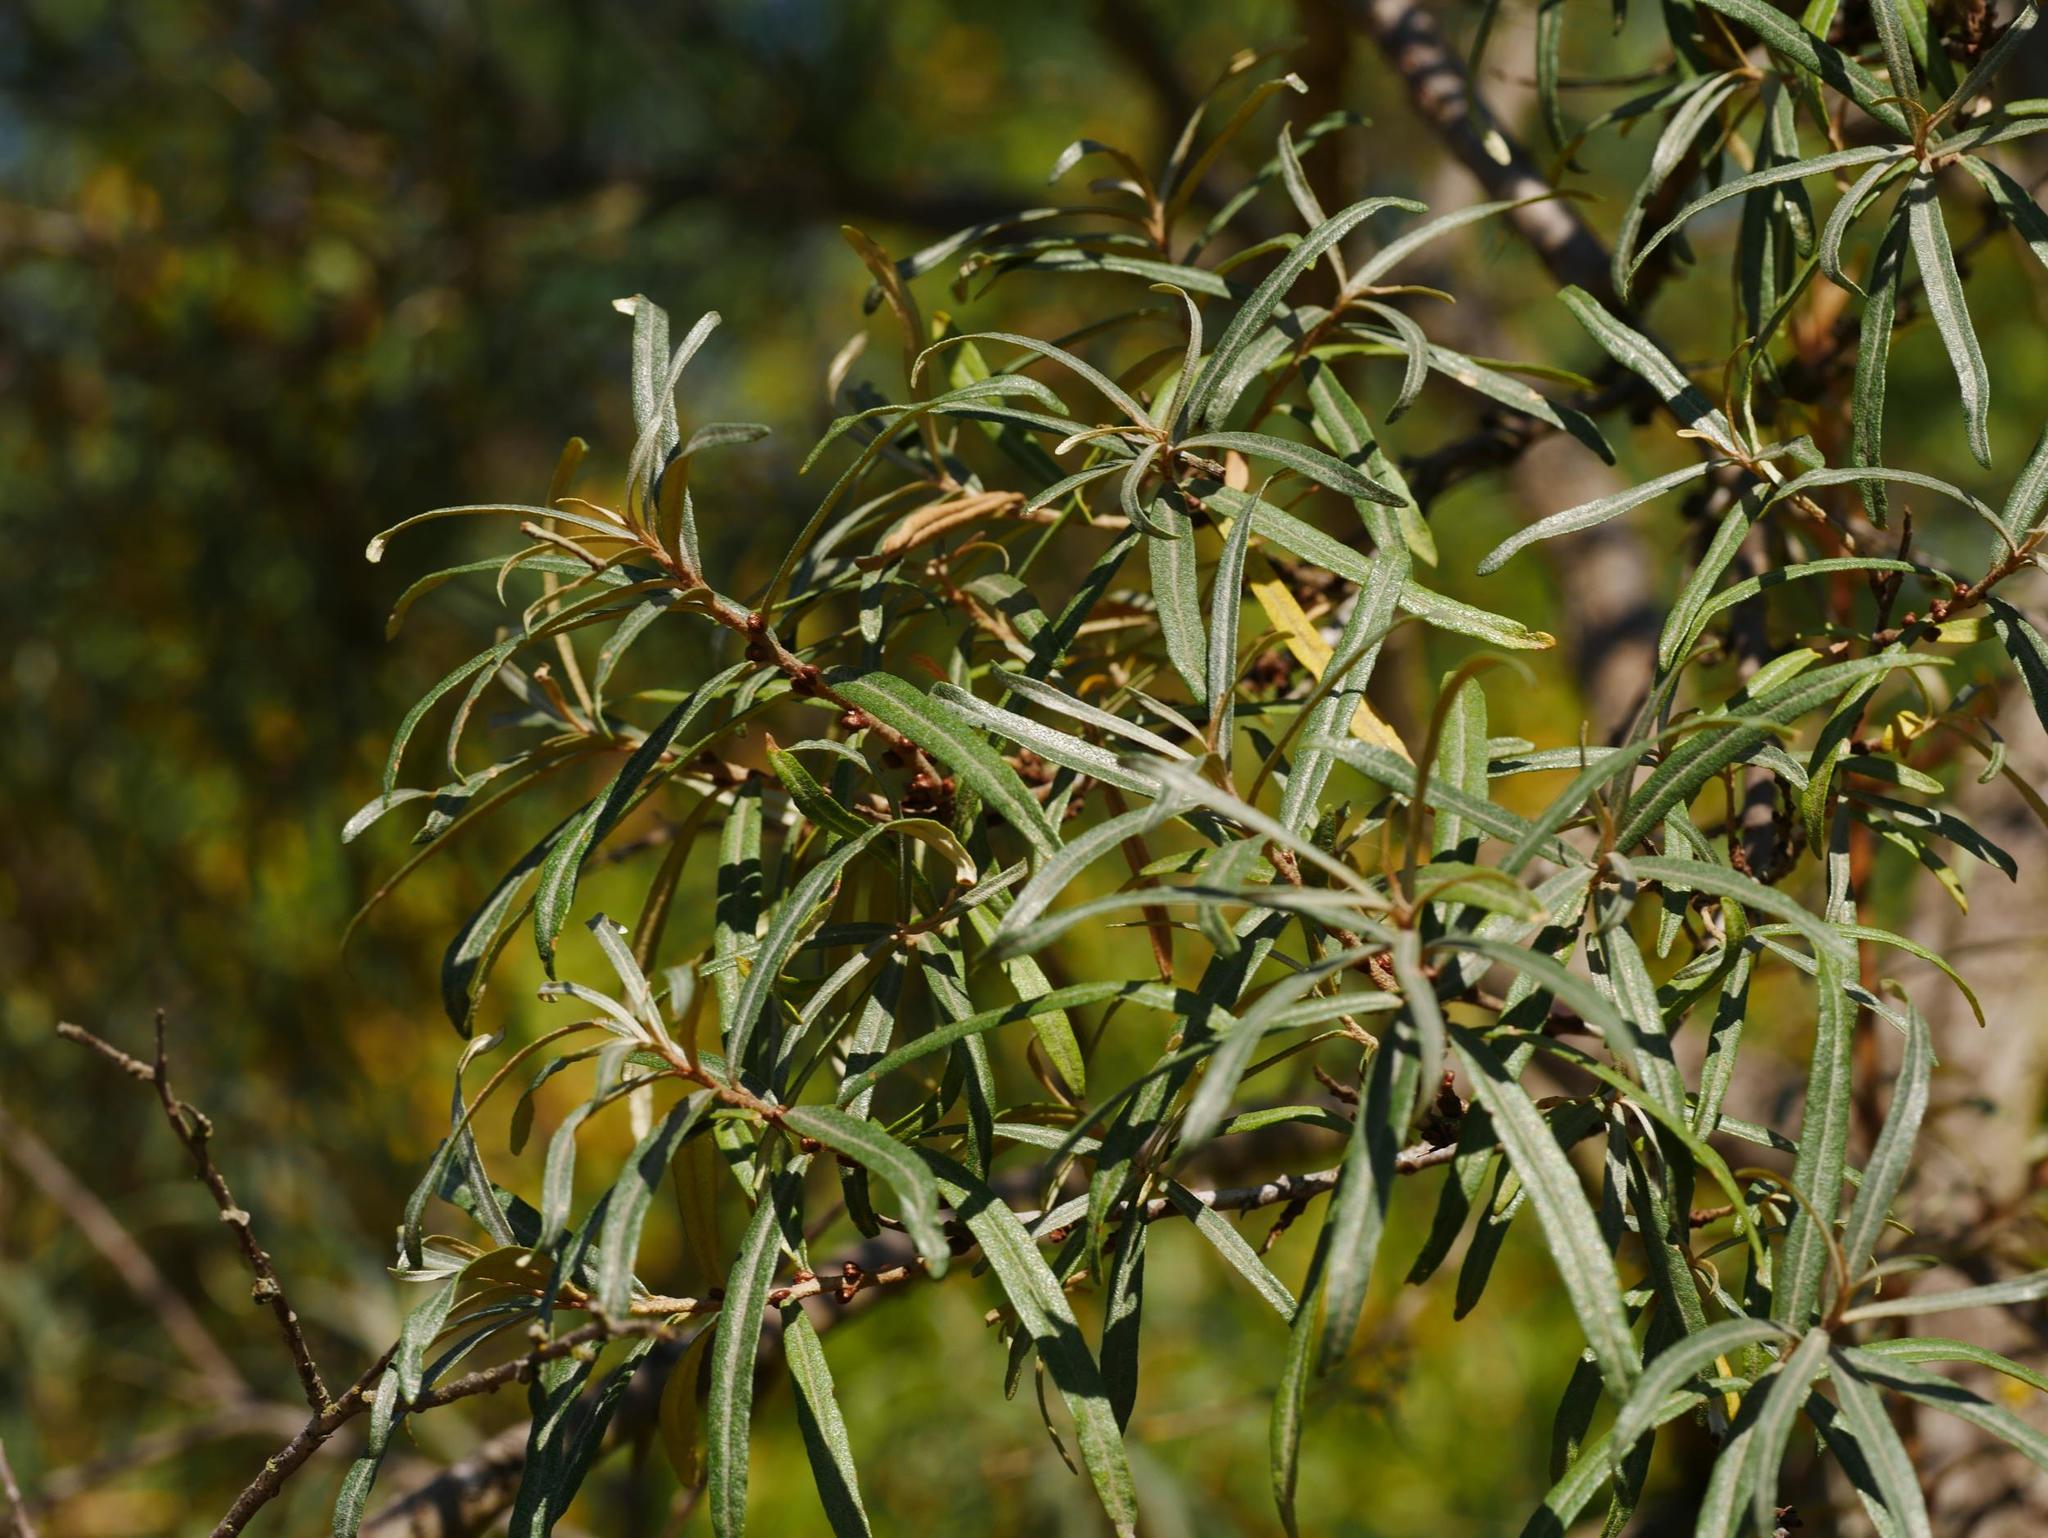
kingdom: Plantae
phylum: Tracheophyta
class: Magnoliopsida
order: Rosales
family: Elaeagnaceae
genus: Hippophae
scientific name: Hippophae rhamnoides
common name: Sea-buckthorn
